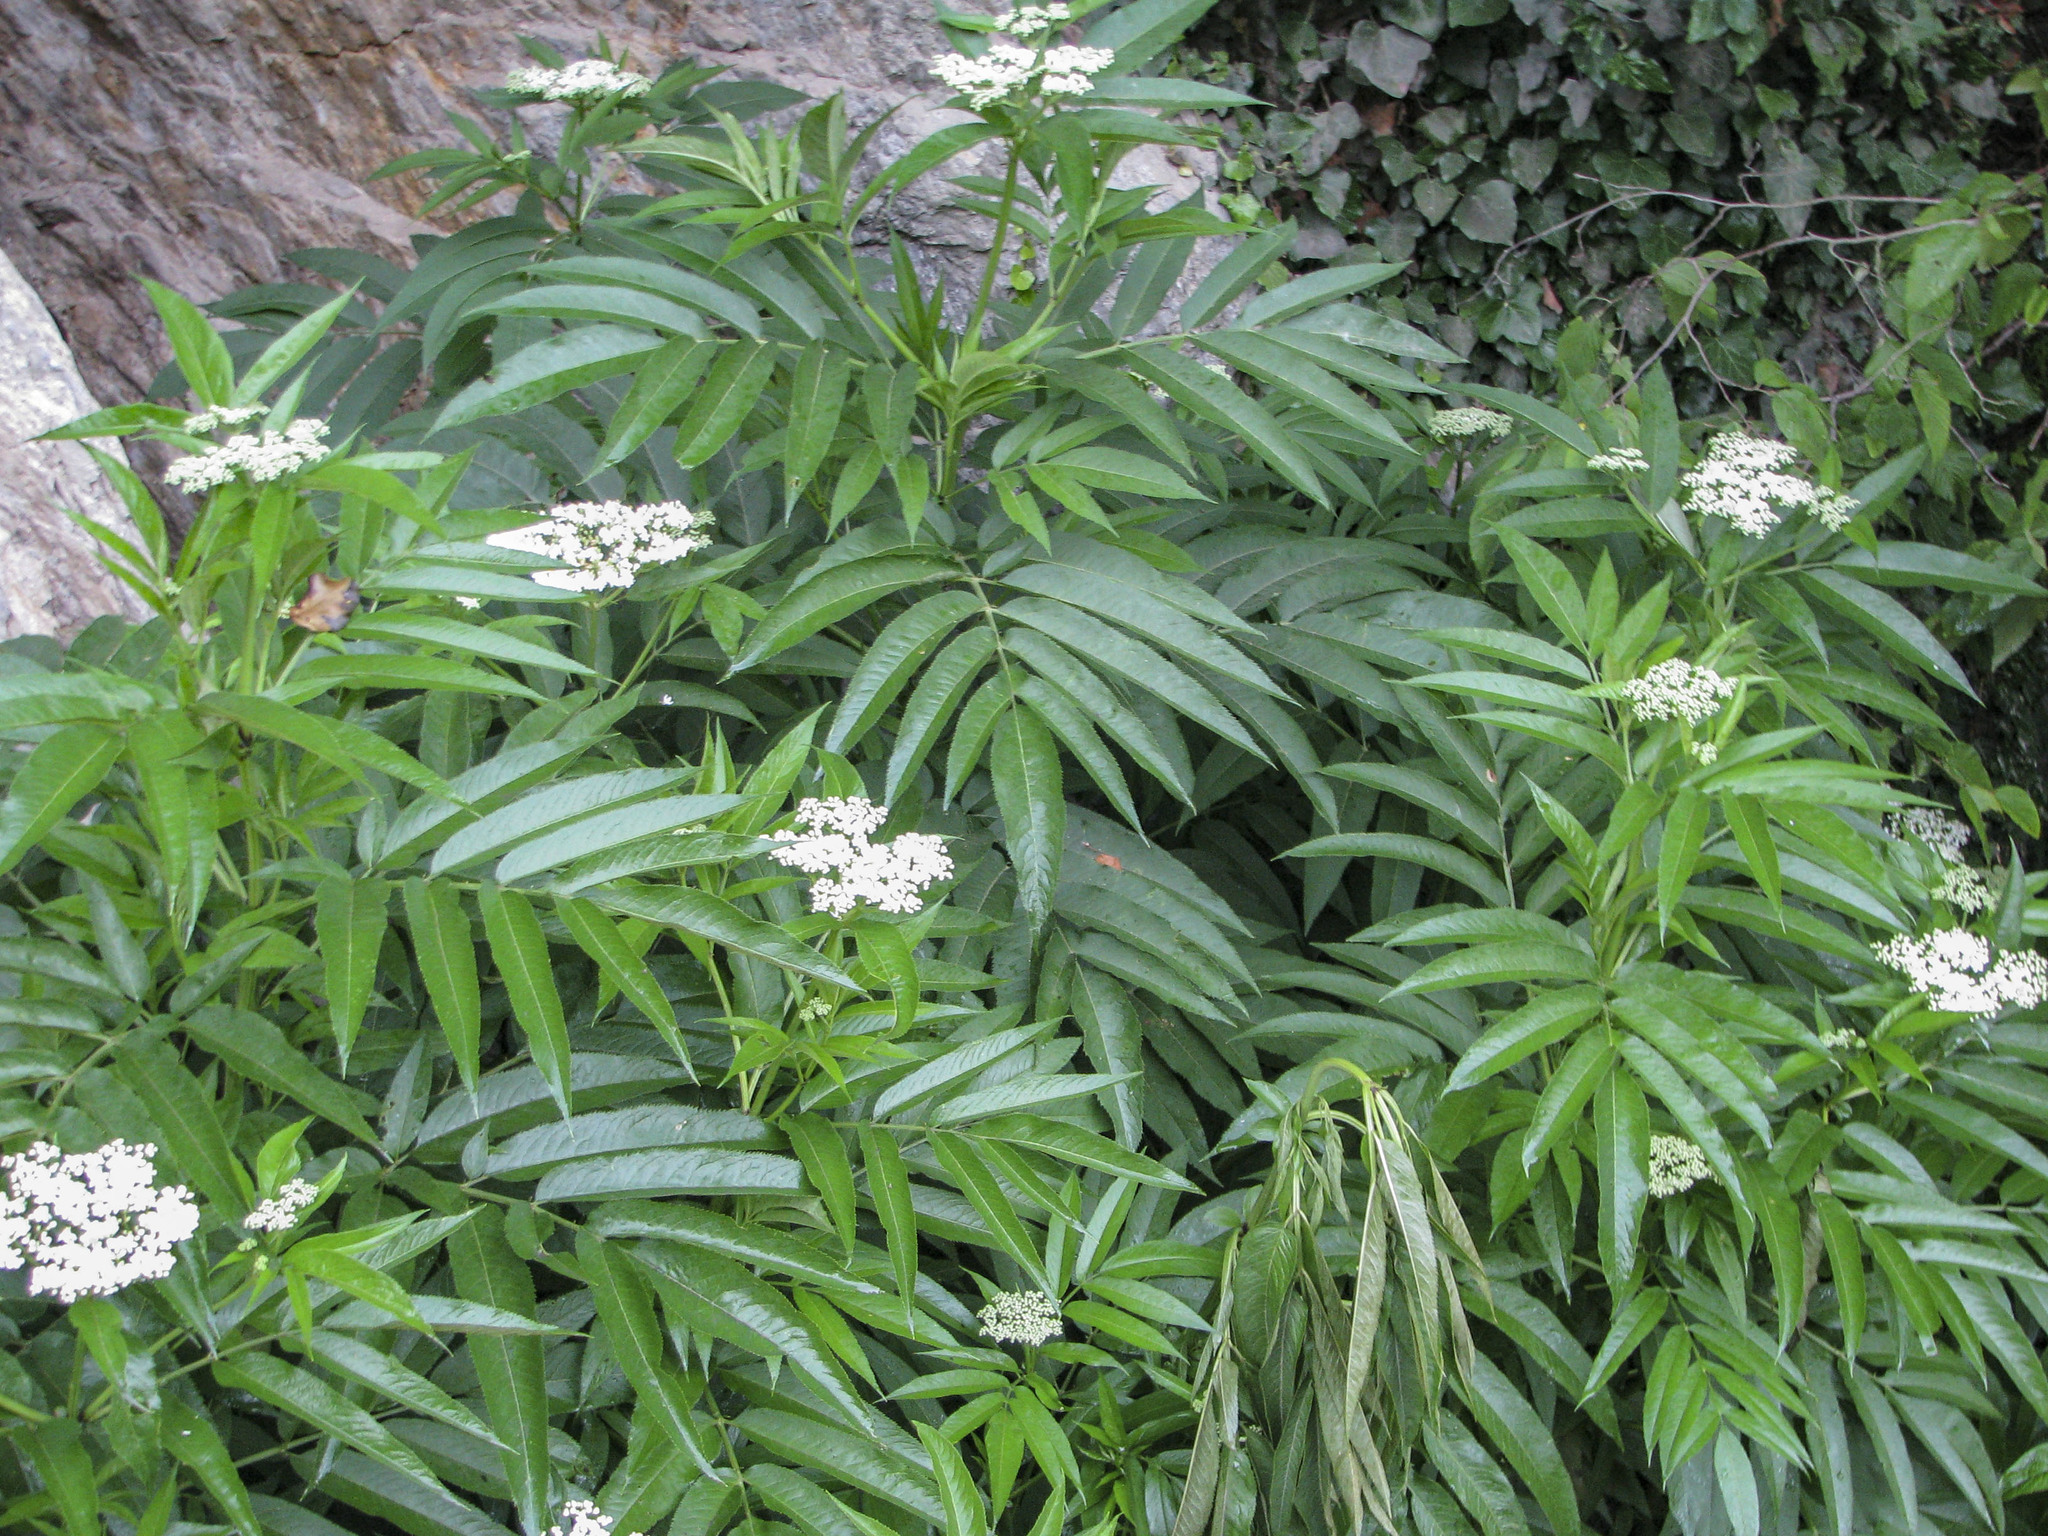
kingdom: Plantae
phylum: Tracheophyta
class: Magnoliopsida
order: Dipsacales
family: Viburnaceae
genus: Sambucus
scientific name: Sambucus ebulus
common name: Dwarf elder
